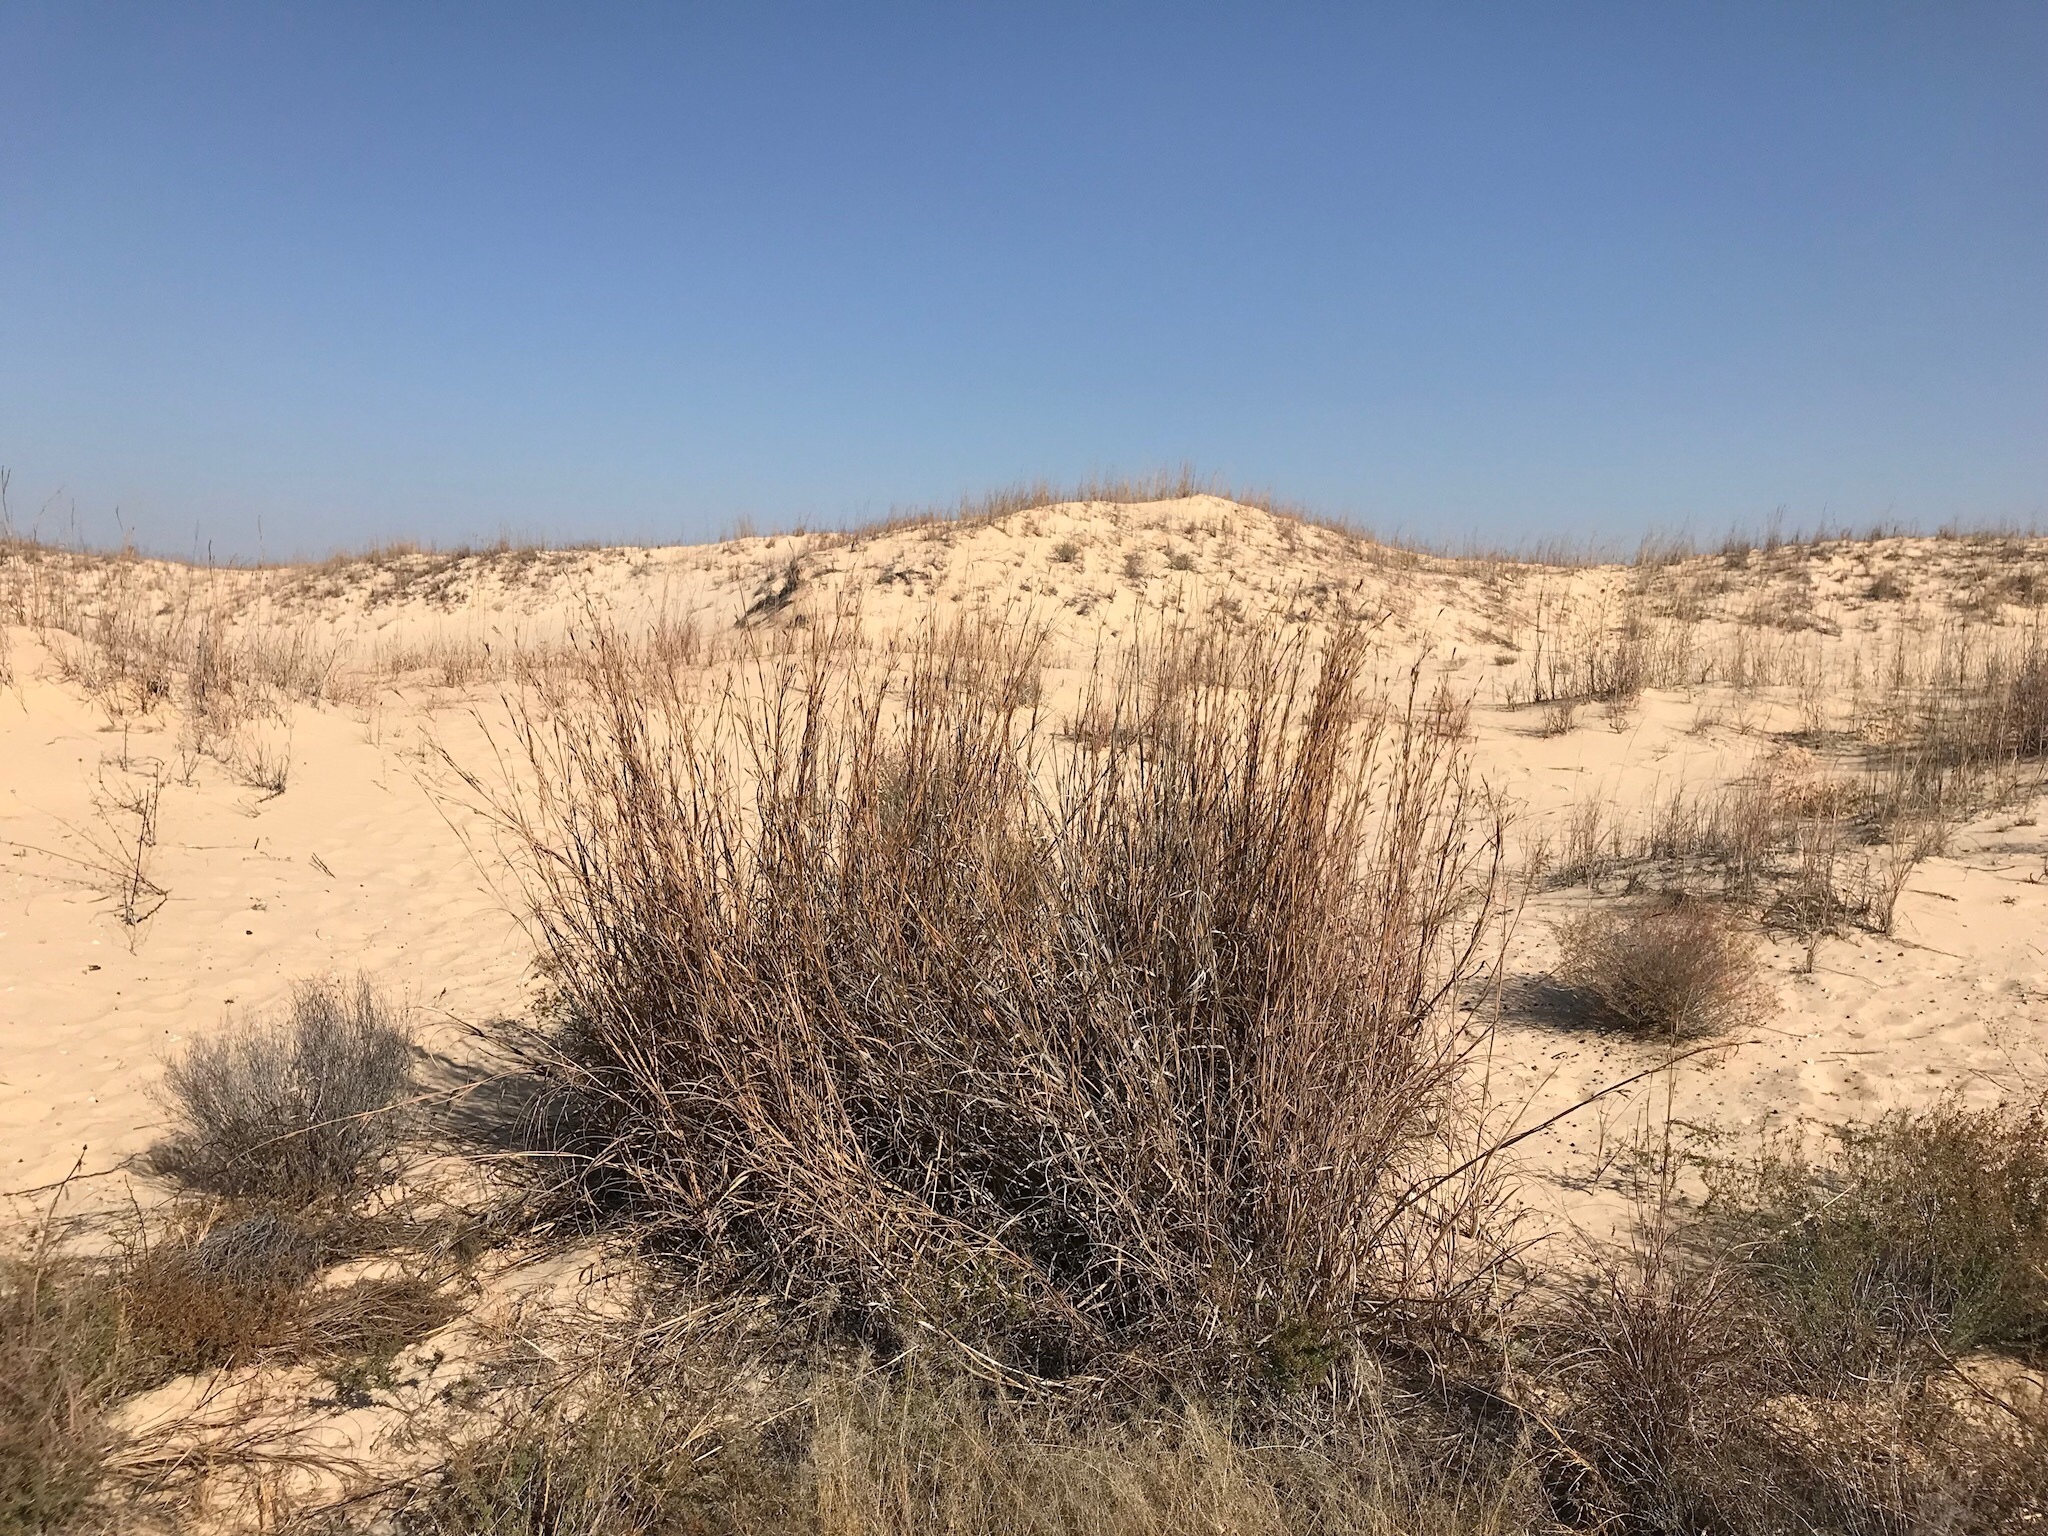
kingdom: Plantae
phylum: Tracheophyta
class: Liliopsida
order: Poales
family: Poaceae
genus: Andropogon
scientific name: Andropogon hallii
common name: Sand bluestem
